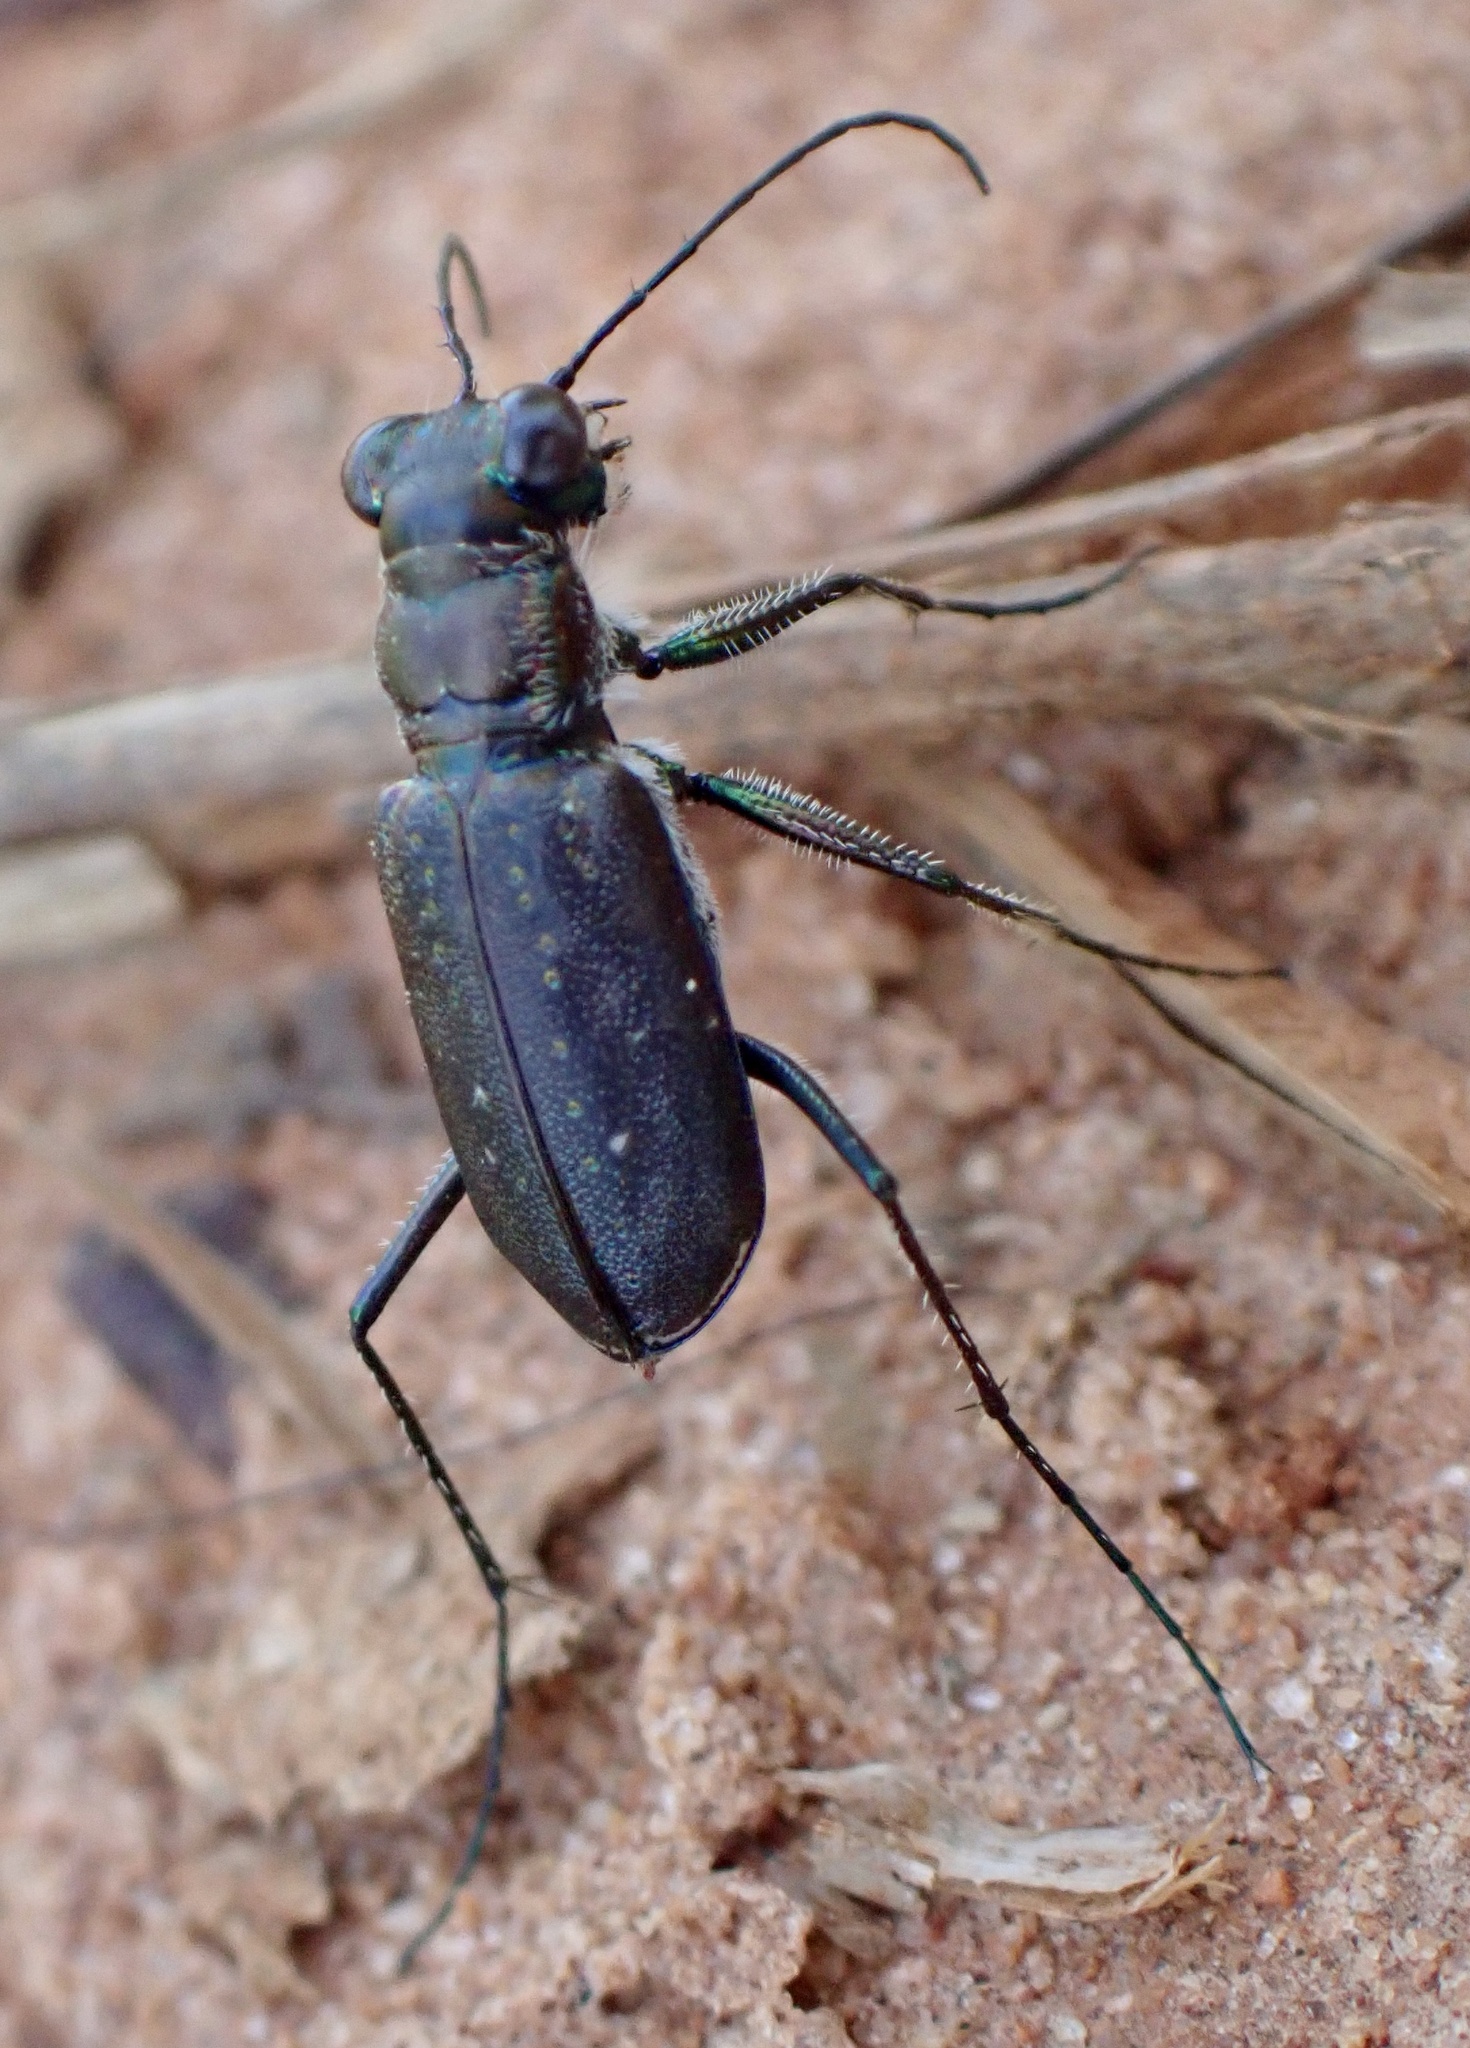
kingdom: Animalia
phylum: Arthropoda
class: Insecta
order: Coleoptera
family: Carabidae
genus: Cicindela
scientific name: Cicindela punctulata
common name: Punctured tiger beetle
